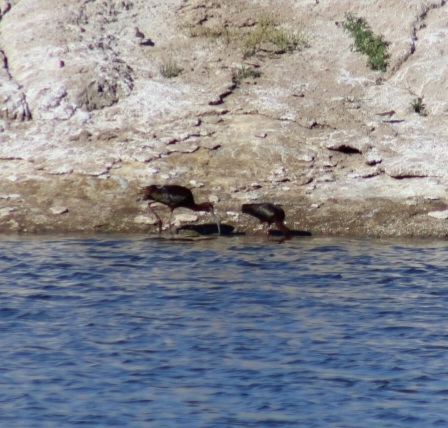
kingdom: Animalia
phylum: Chordata
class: Aves
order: Pelecaniformes
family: Threskiornithidae
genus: Plegadis
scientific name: Plegadis chihi
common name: White-faced ibis
